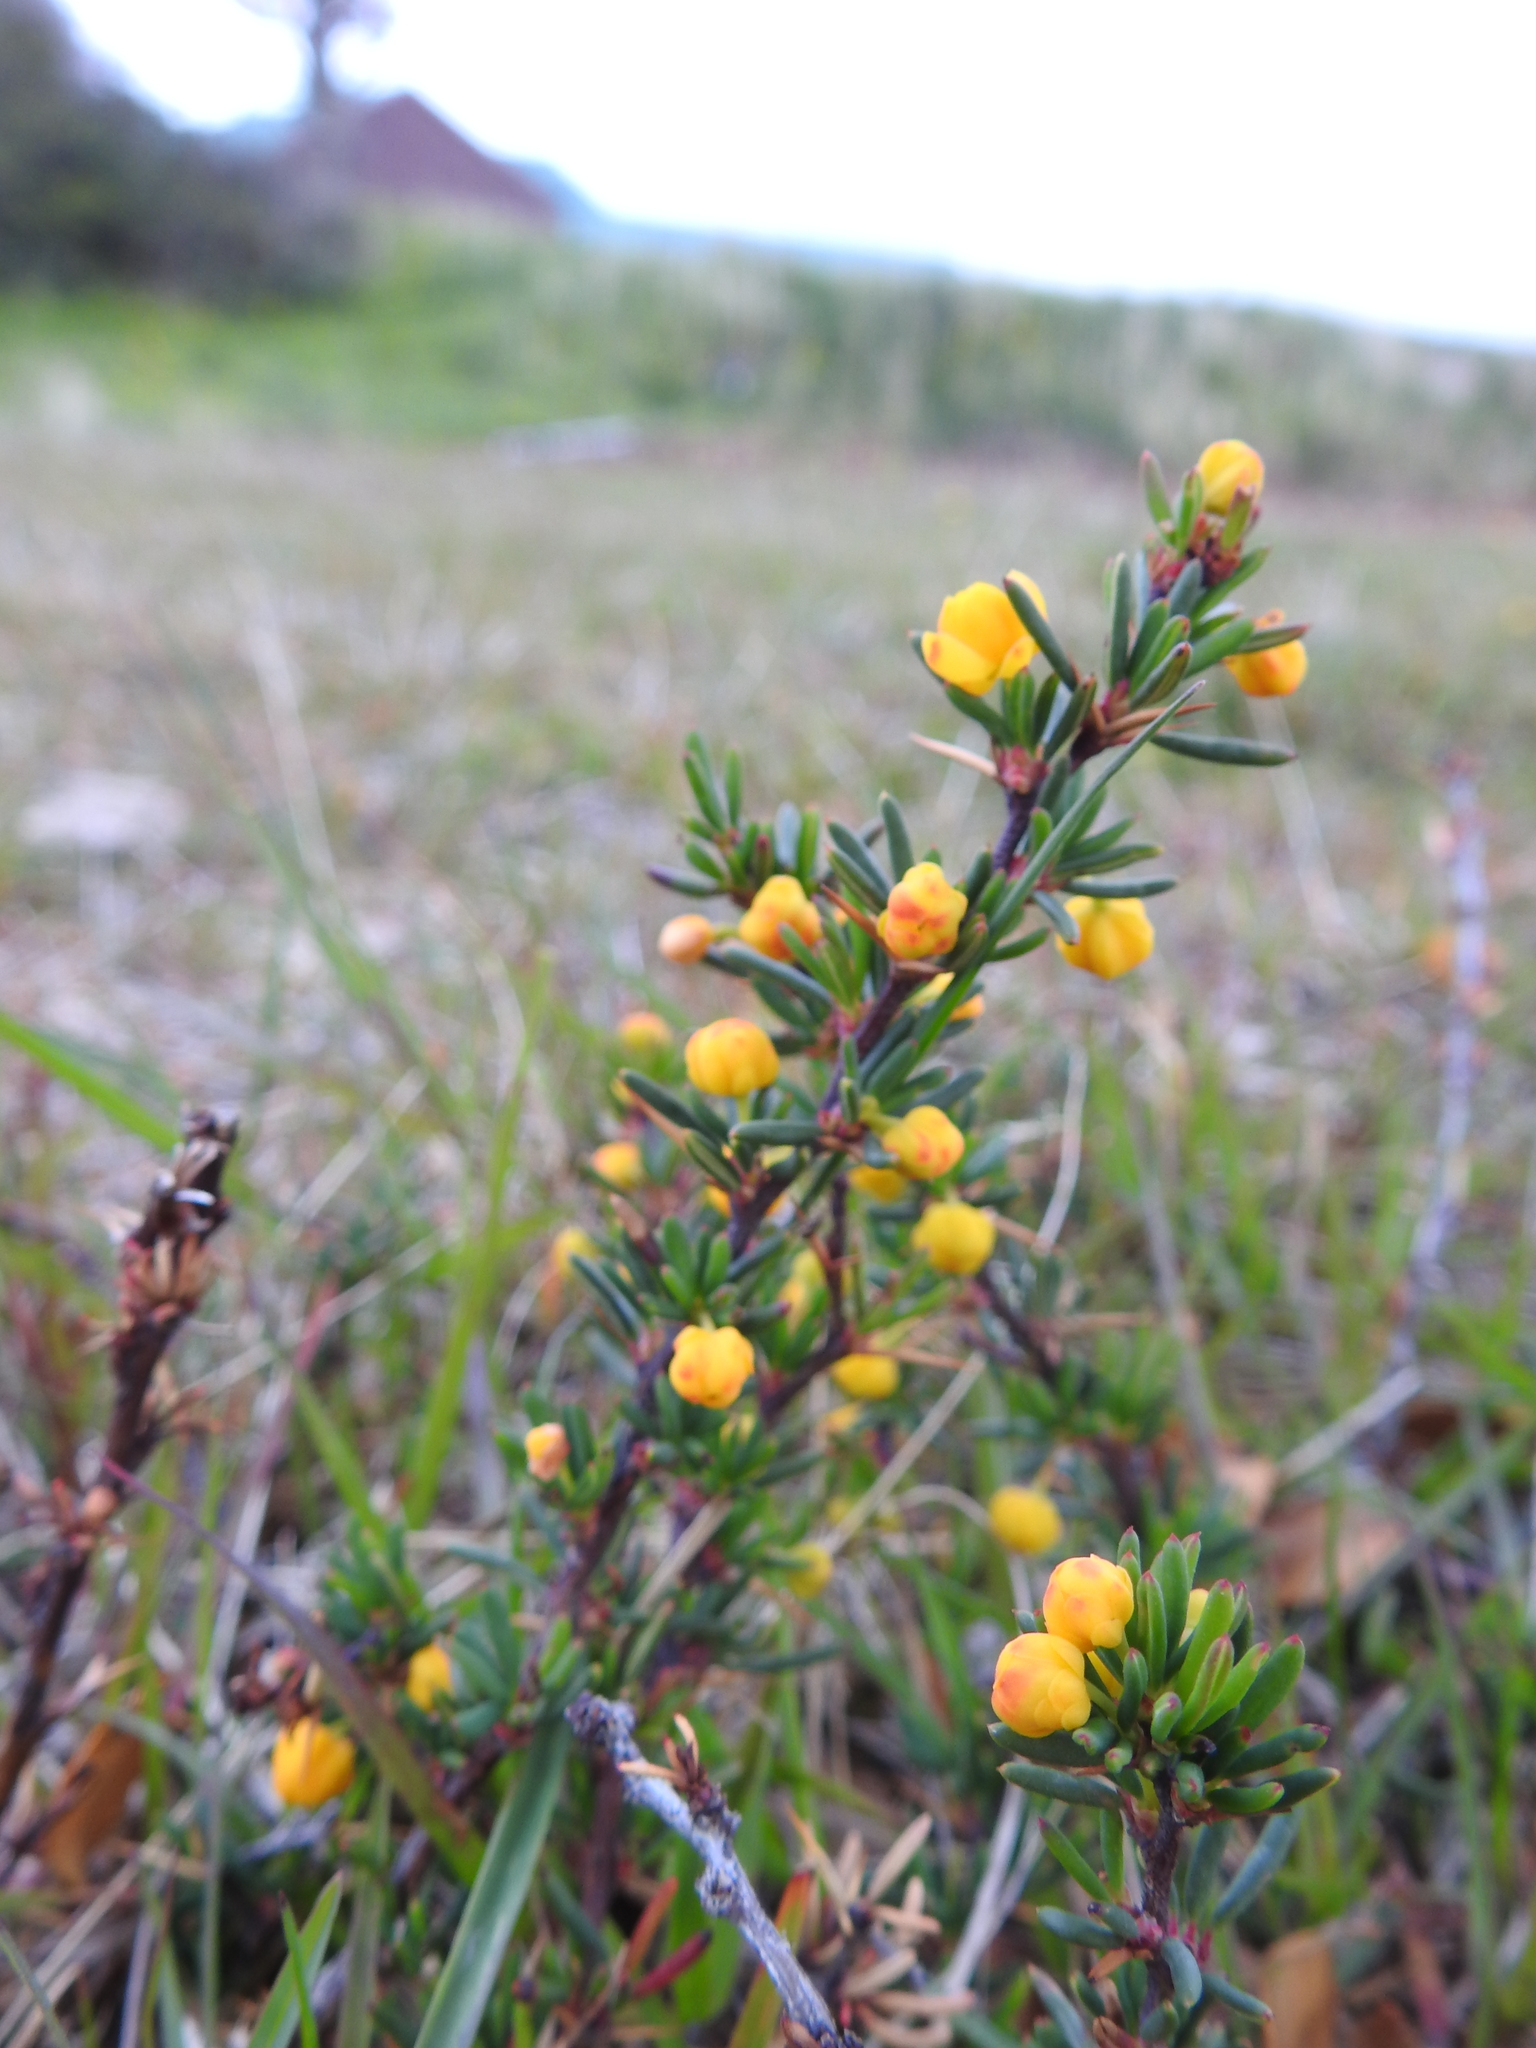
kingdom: Plantae
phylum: Tracheophyta
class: Magnoliopsida
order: Ranunculales
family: Berberidaceae
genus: Berberis
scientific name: Berberis empetrifolia
